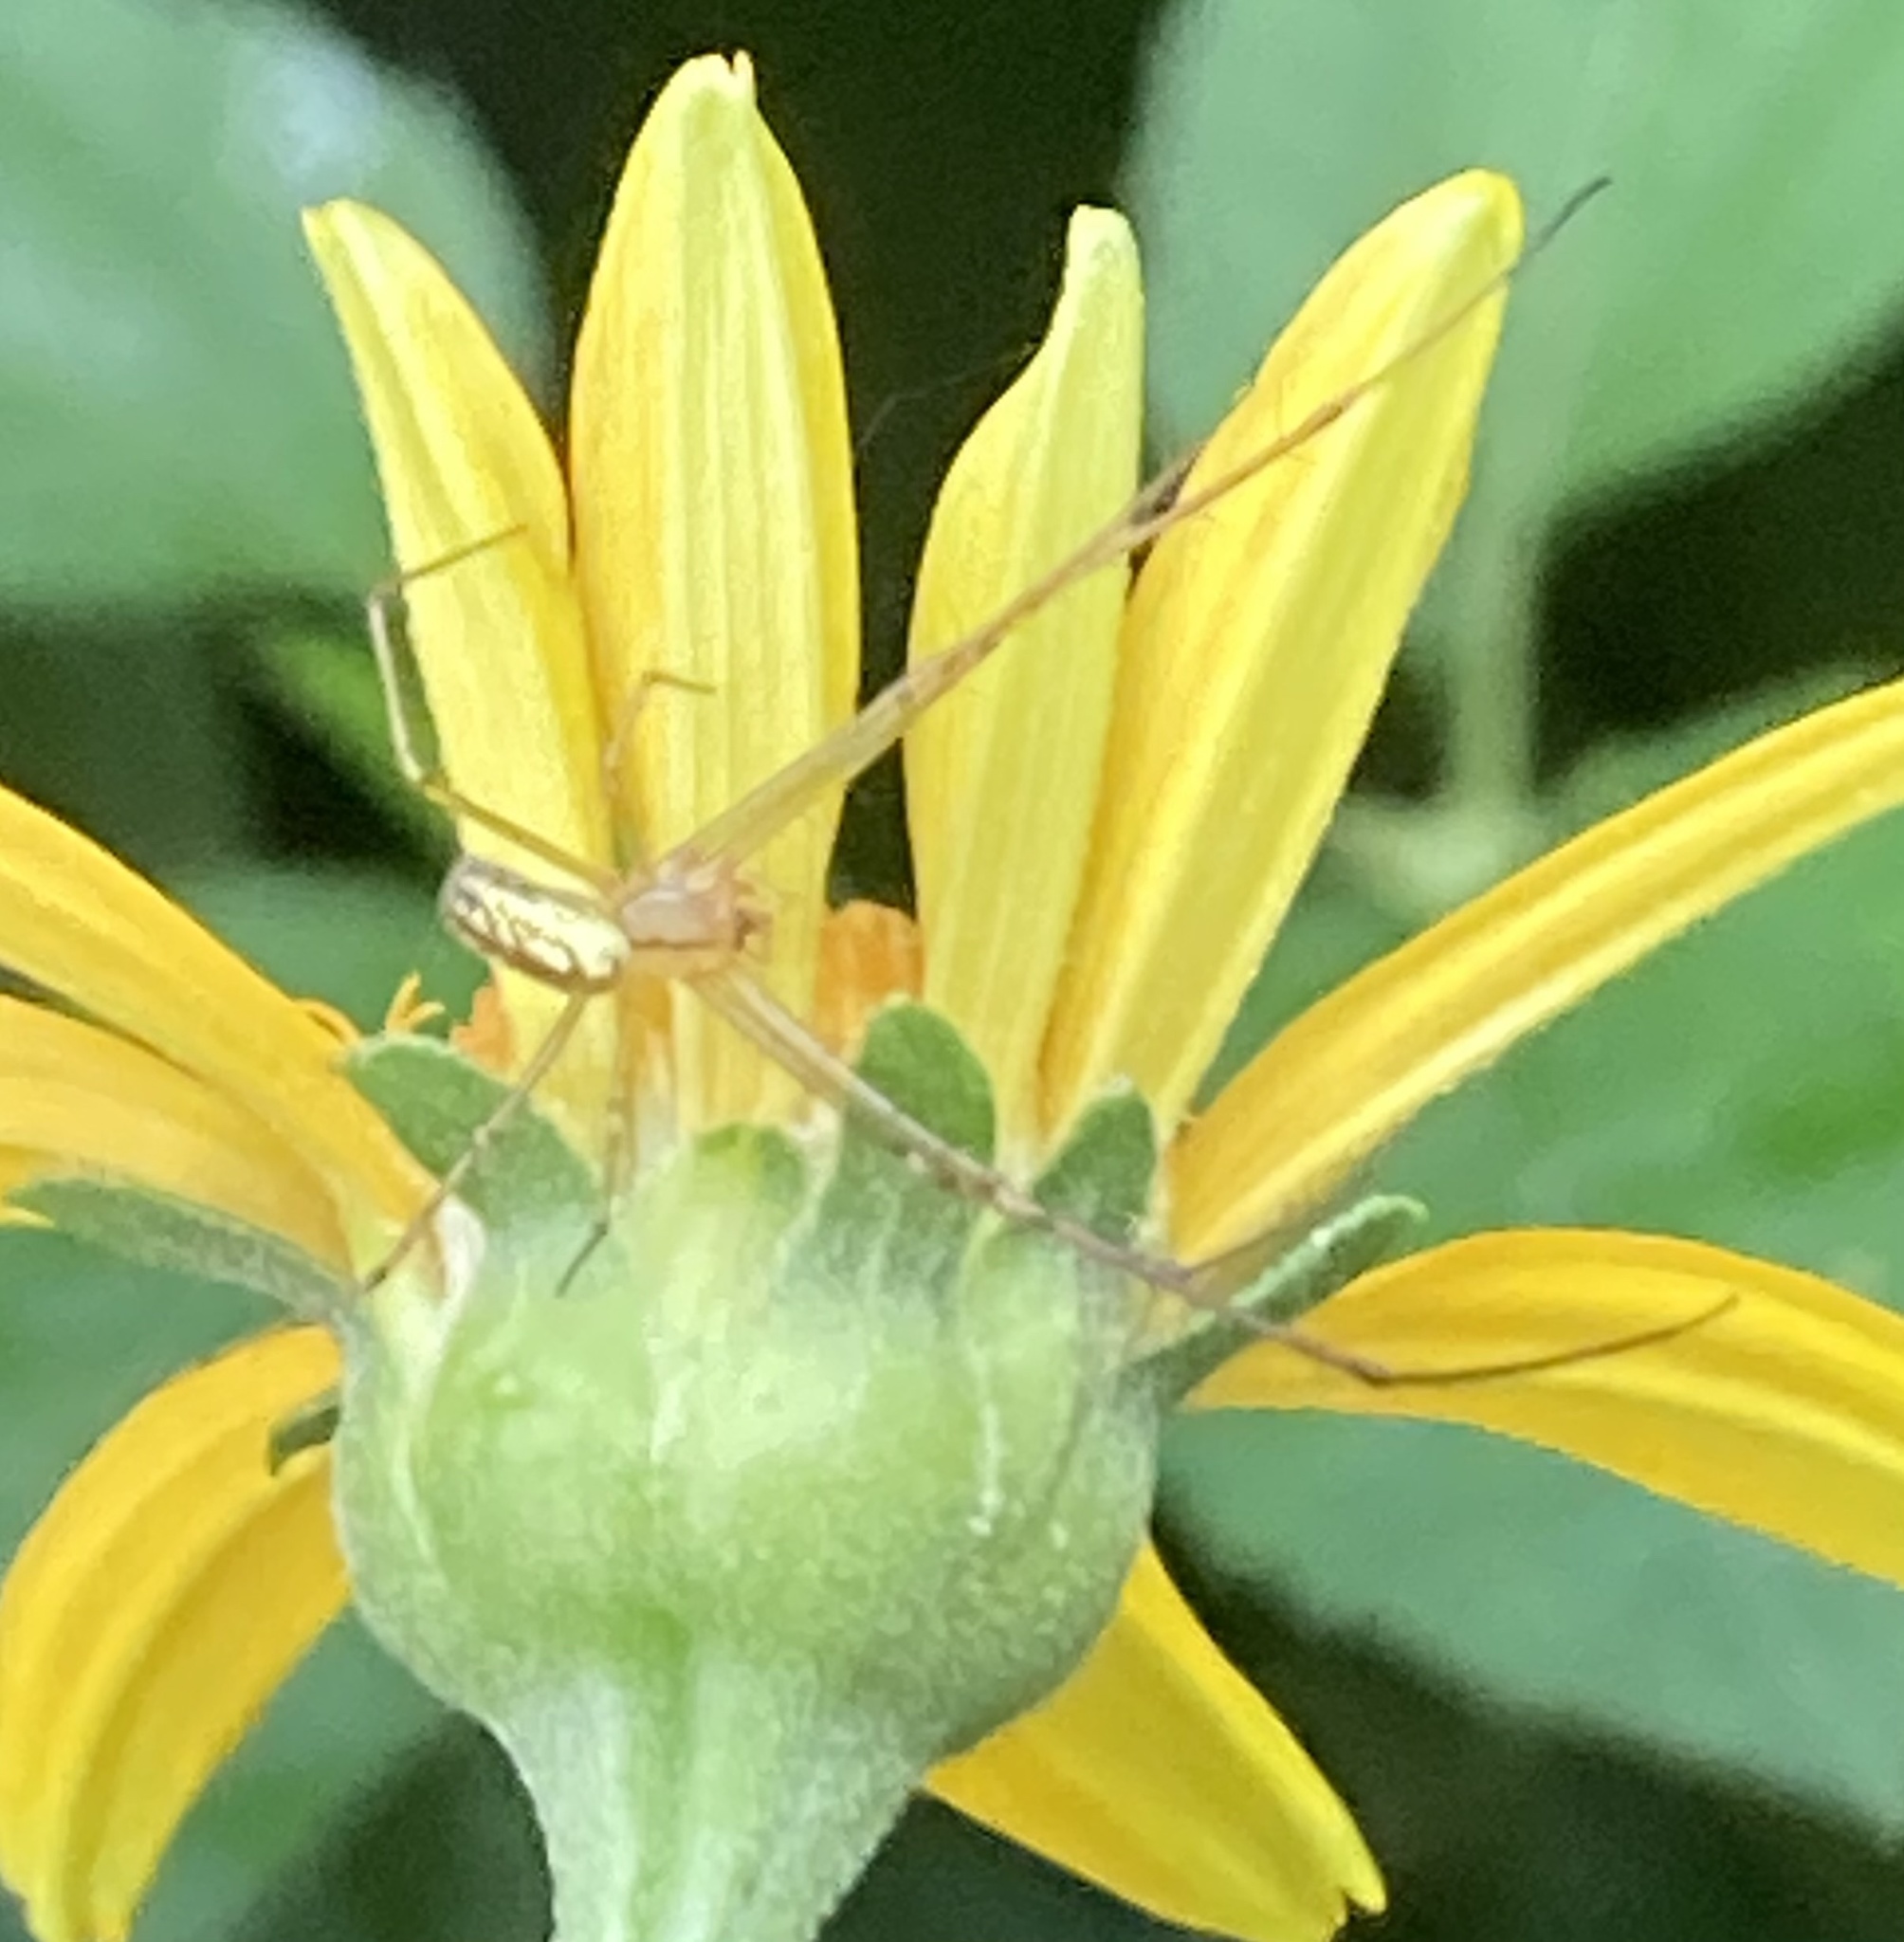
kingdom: Animalia
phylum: Arthropoda
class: Arachnida
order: Araneae
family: Tetragnathidae
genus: Leucauge
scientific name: Leucauge venusta
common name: Longjawed orb weavers
